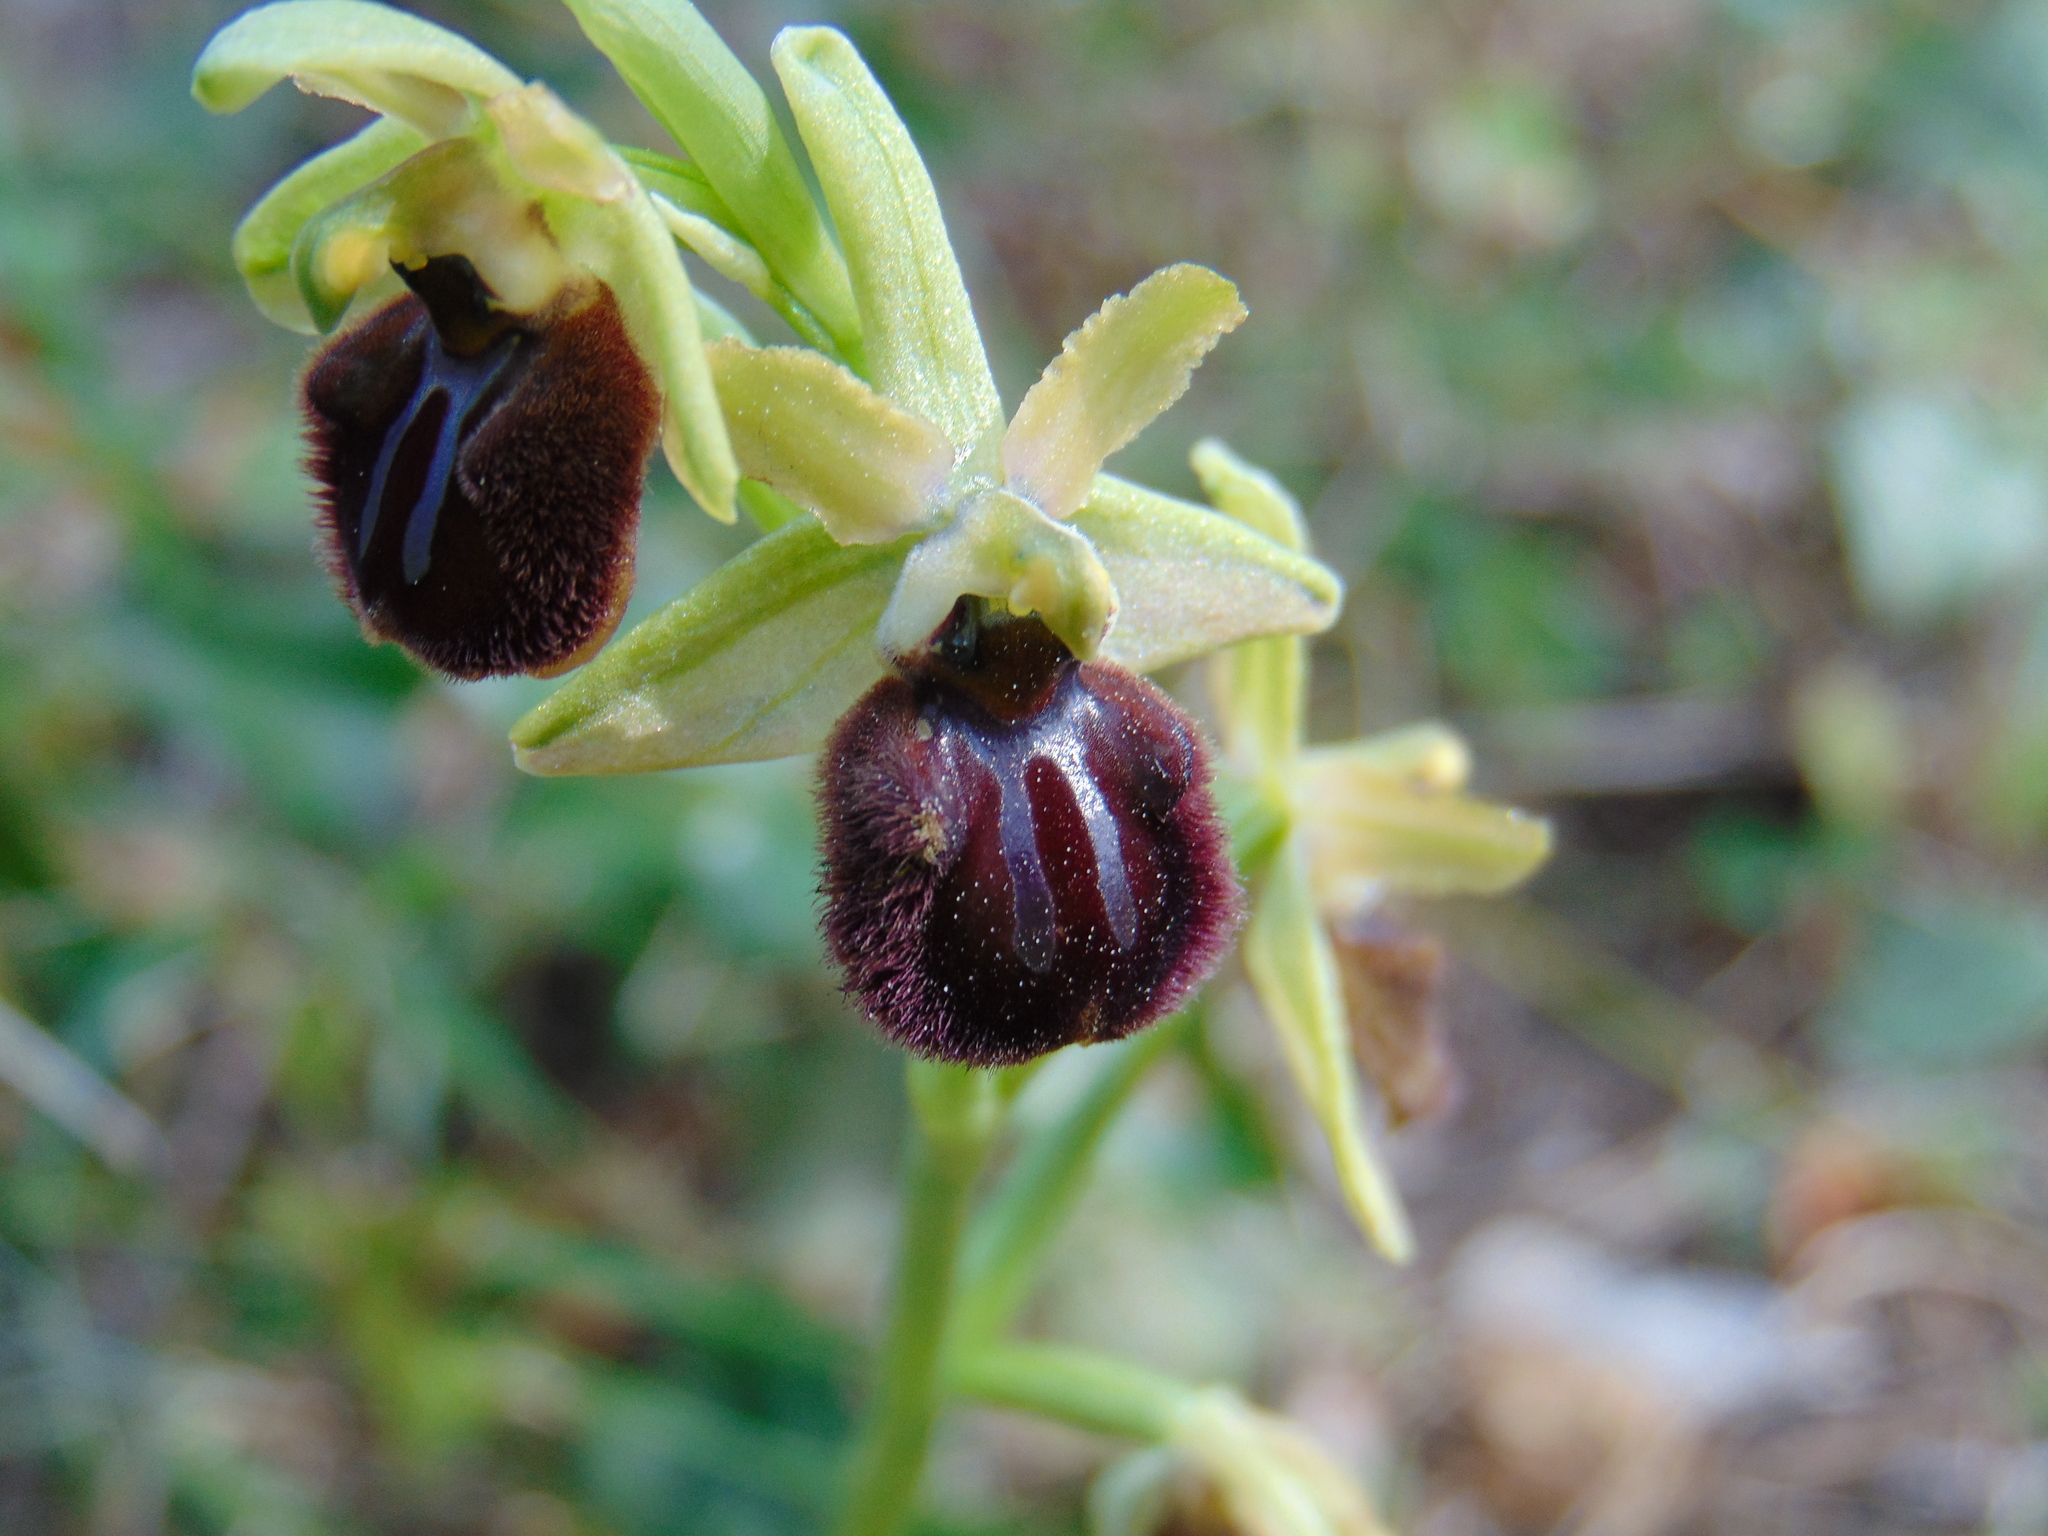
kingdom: Plantae
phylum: Tracheophyta
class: Liliopsida
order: Asparagales
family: Orchidaceae
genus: Ophrys
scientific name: Ophrys sphegodes
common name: Early spider-orchid
